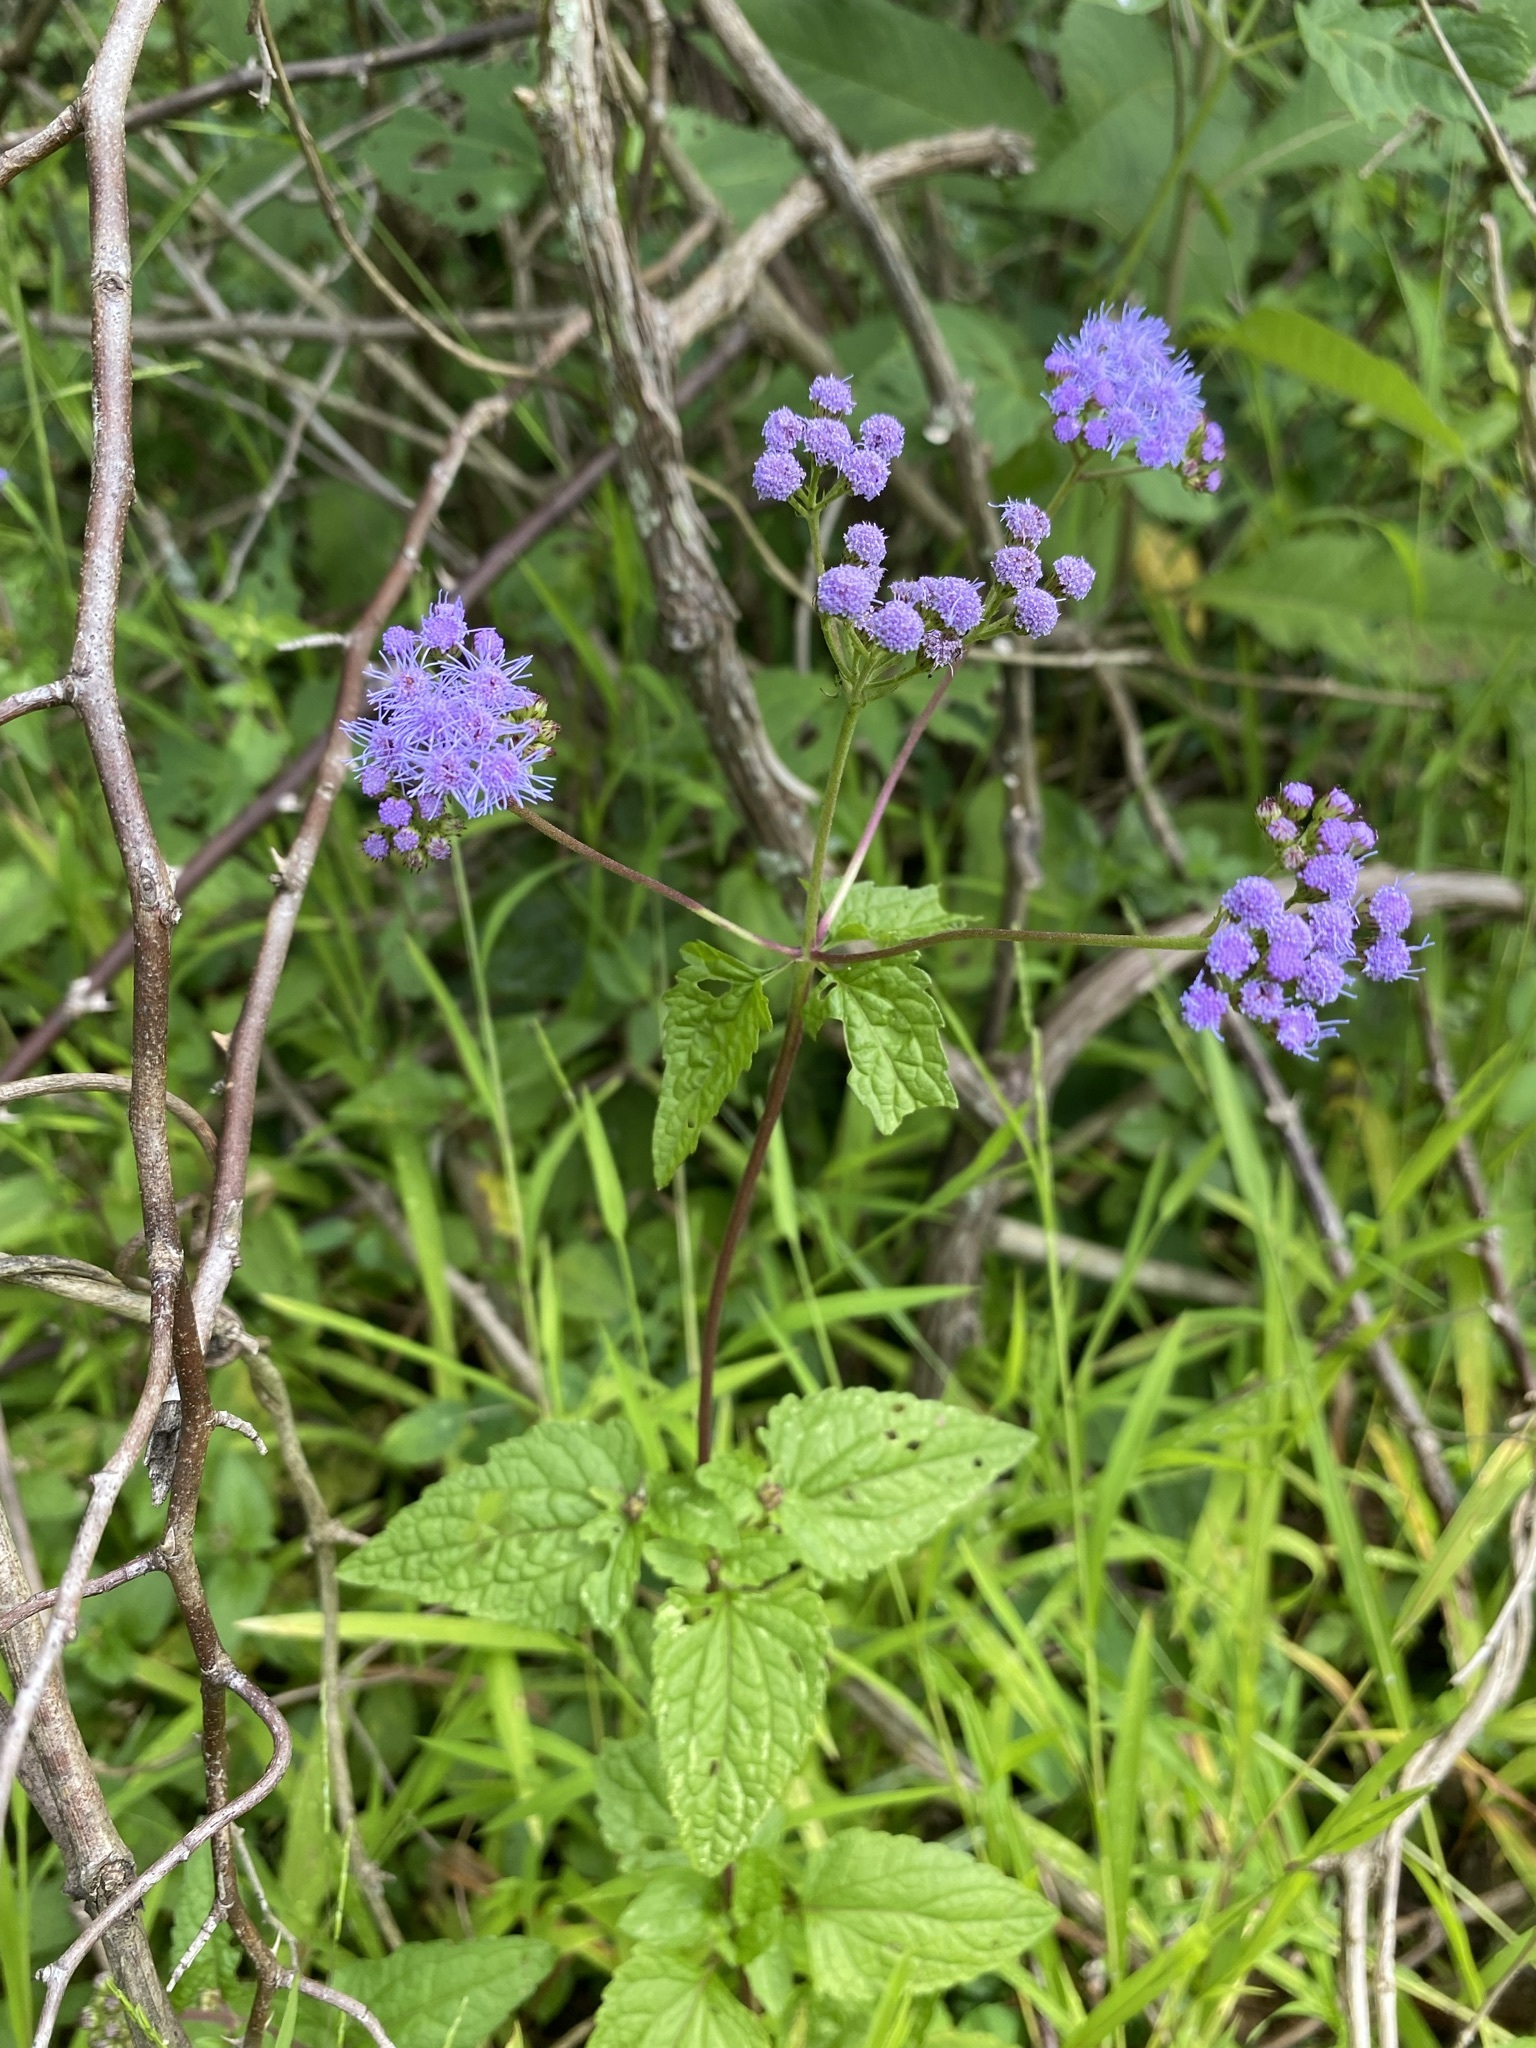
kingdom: Plantae
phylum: Tracheophyta
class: Magnoliopsida
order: Asterales
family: Asteraceae
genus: Conoclinium
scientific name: Conoclinium coelestinum
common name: Blue mistflower
